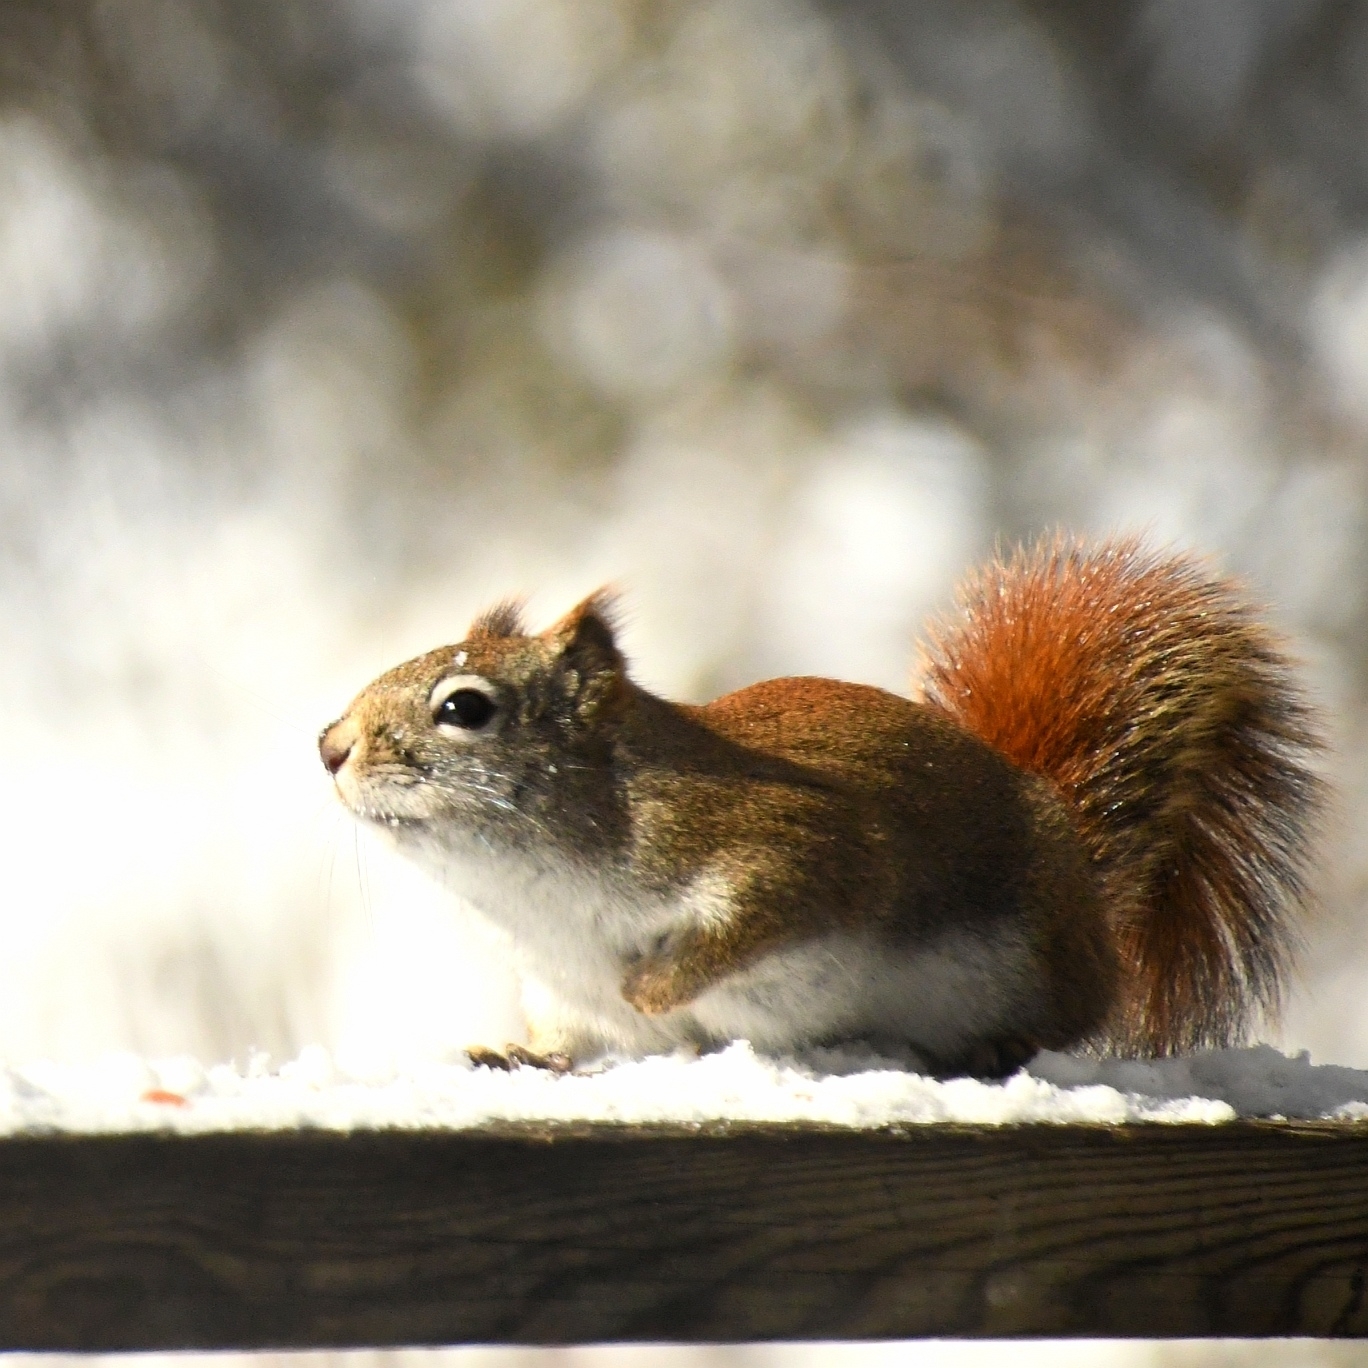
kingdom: Animalia
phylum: Chordata
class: Mammalia
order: Rodentia
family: Sciuridae
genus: Tamiasciurus
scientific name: Tamiasciurus hudsonicus
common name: Red squirrel
